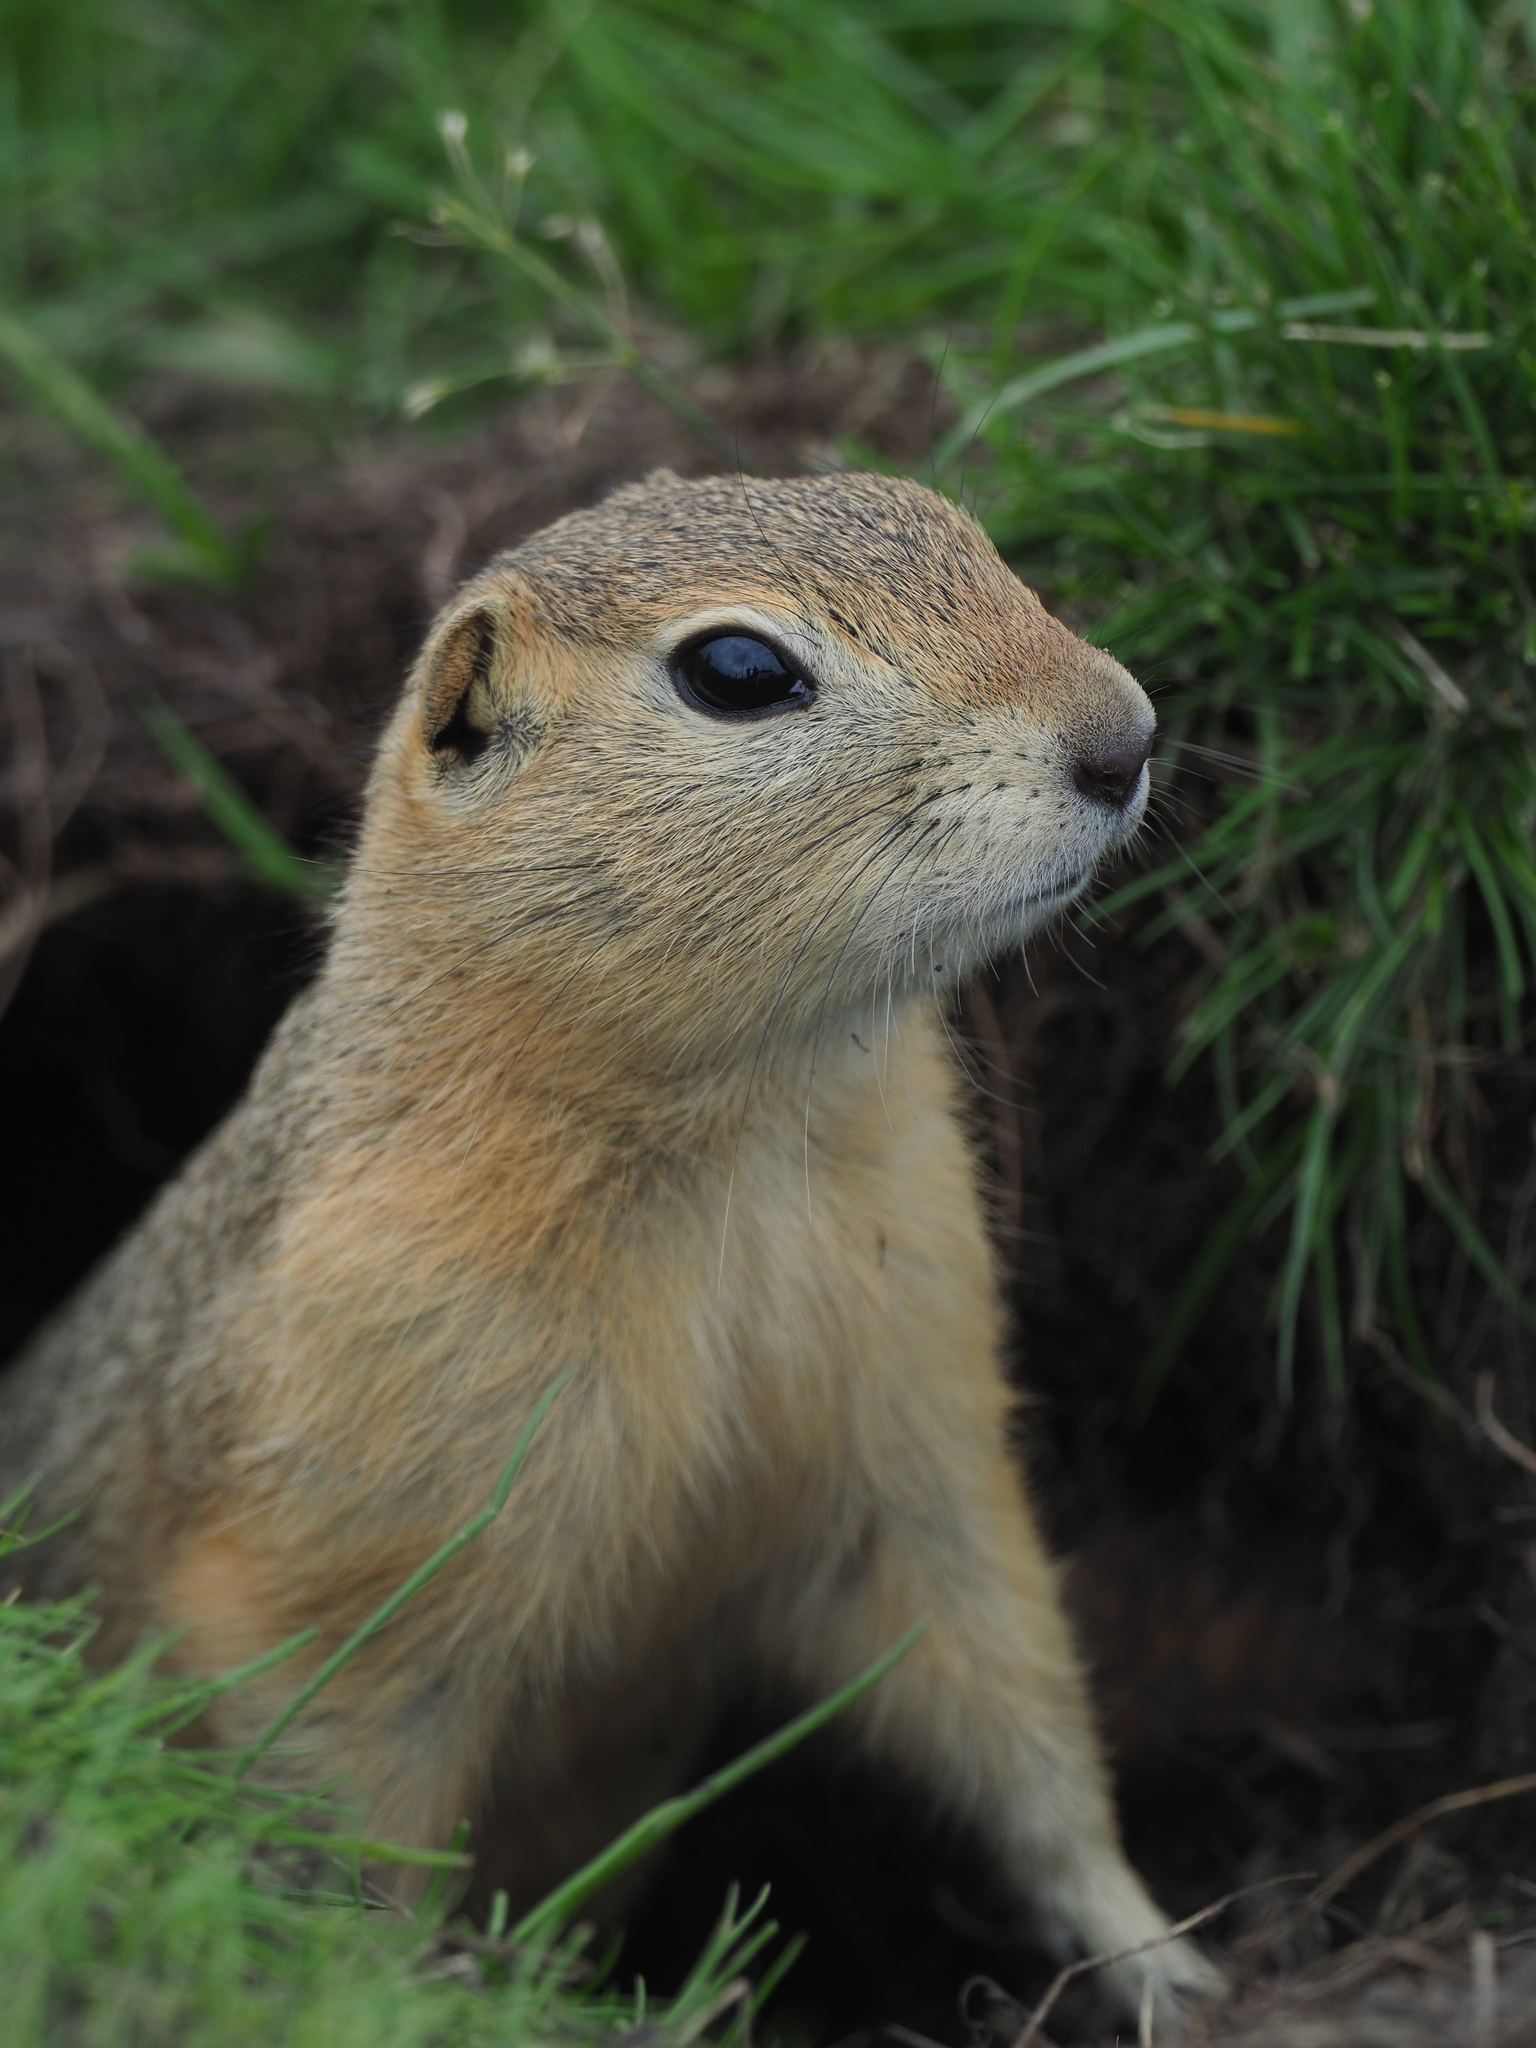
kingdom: Animalia
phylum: Chordata
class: Mammalia
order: Rodentia
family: Sciuridae
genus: Urocitellus
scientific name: Urocitellus richardsonii
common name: Richardson's ground squirrel
